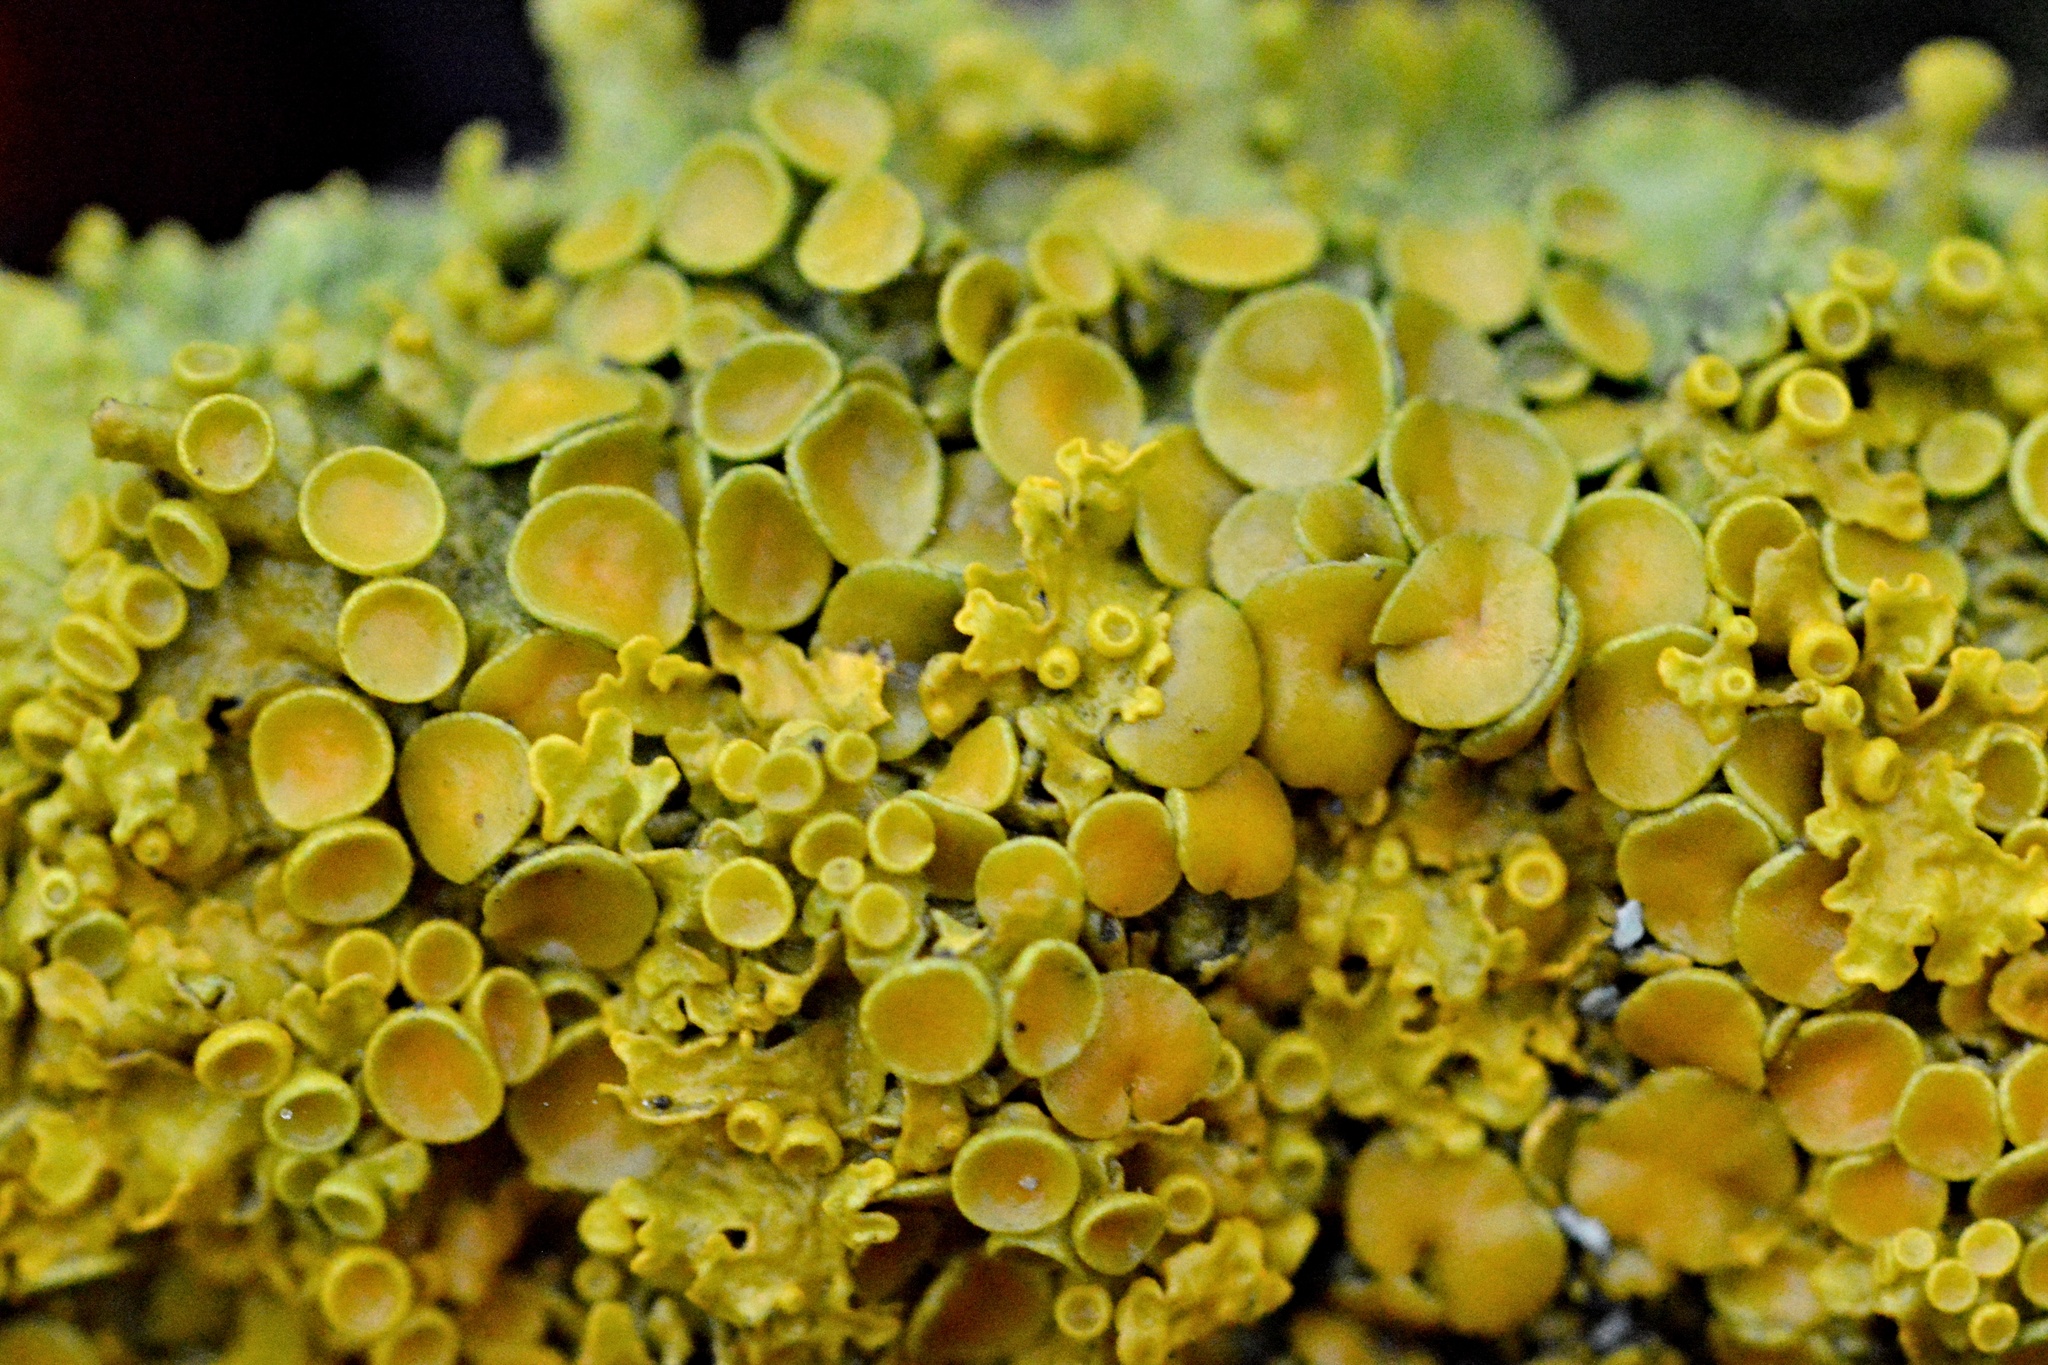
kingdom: Fungi
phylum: Ascomycota
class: Lecanoromycetes
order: Teloschistales
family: Teloschistaceae
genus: Xanthoria
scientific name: Xanthoria parietina
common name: Common orange lichen
